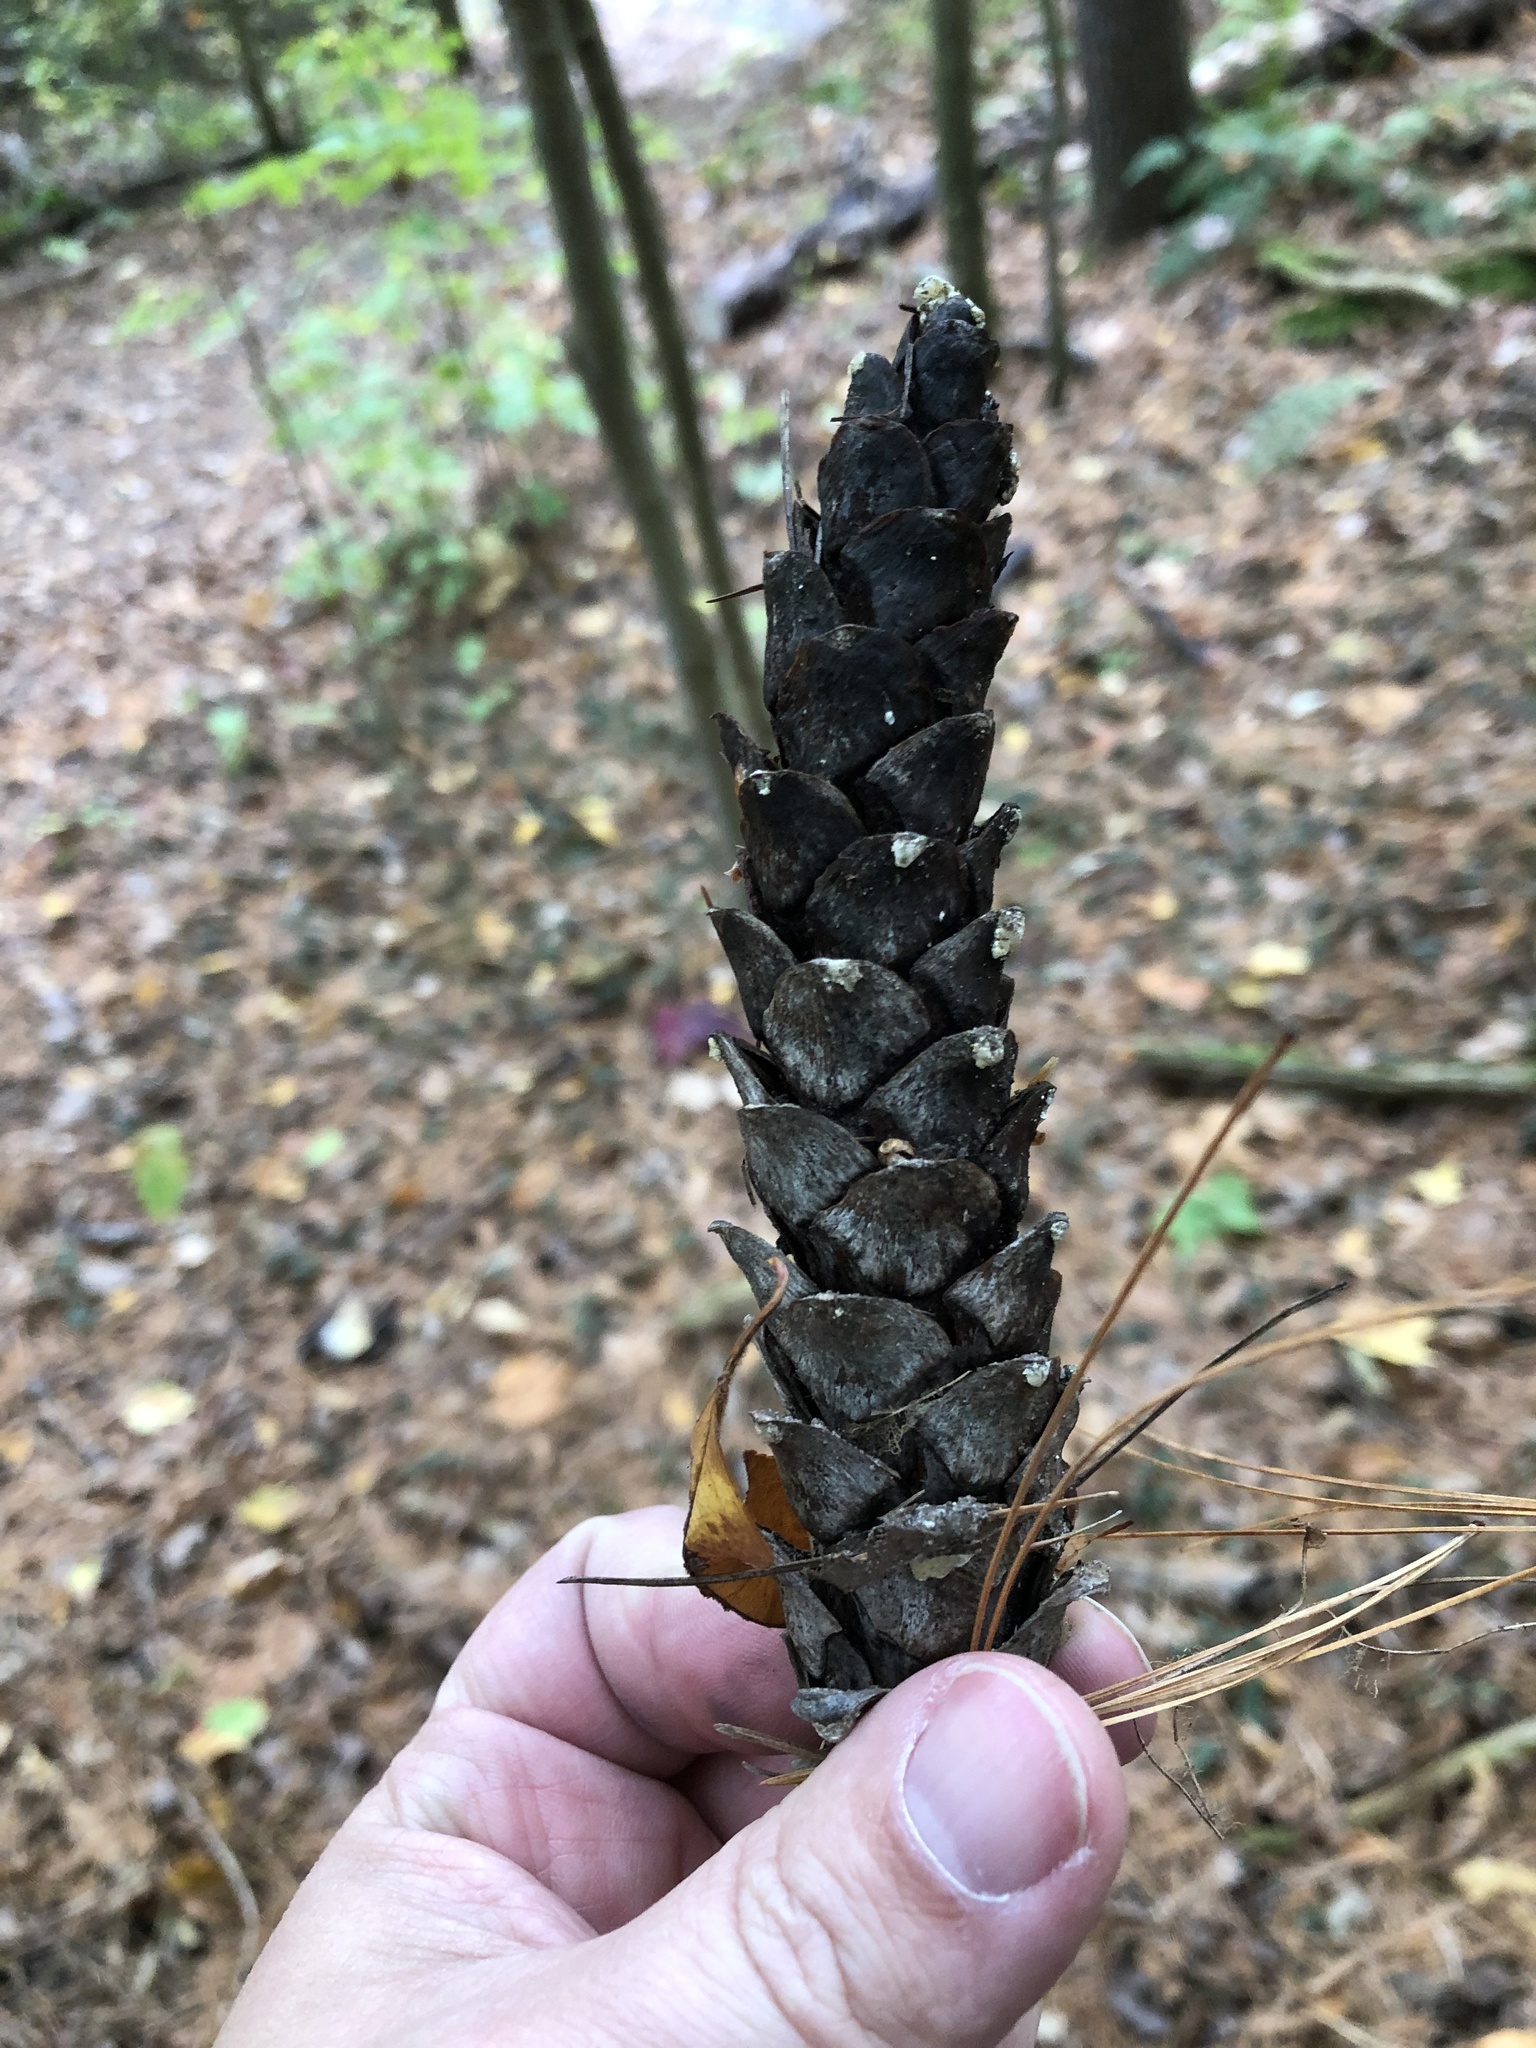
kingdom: Plantae
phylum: Tracheophyta
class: Pinopsida
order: Pinales
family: Pinaceae
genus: Pinus
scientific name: Pinus strobus
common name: Weymouth pine
